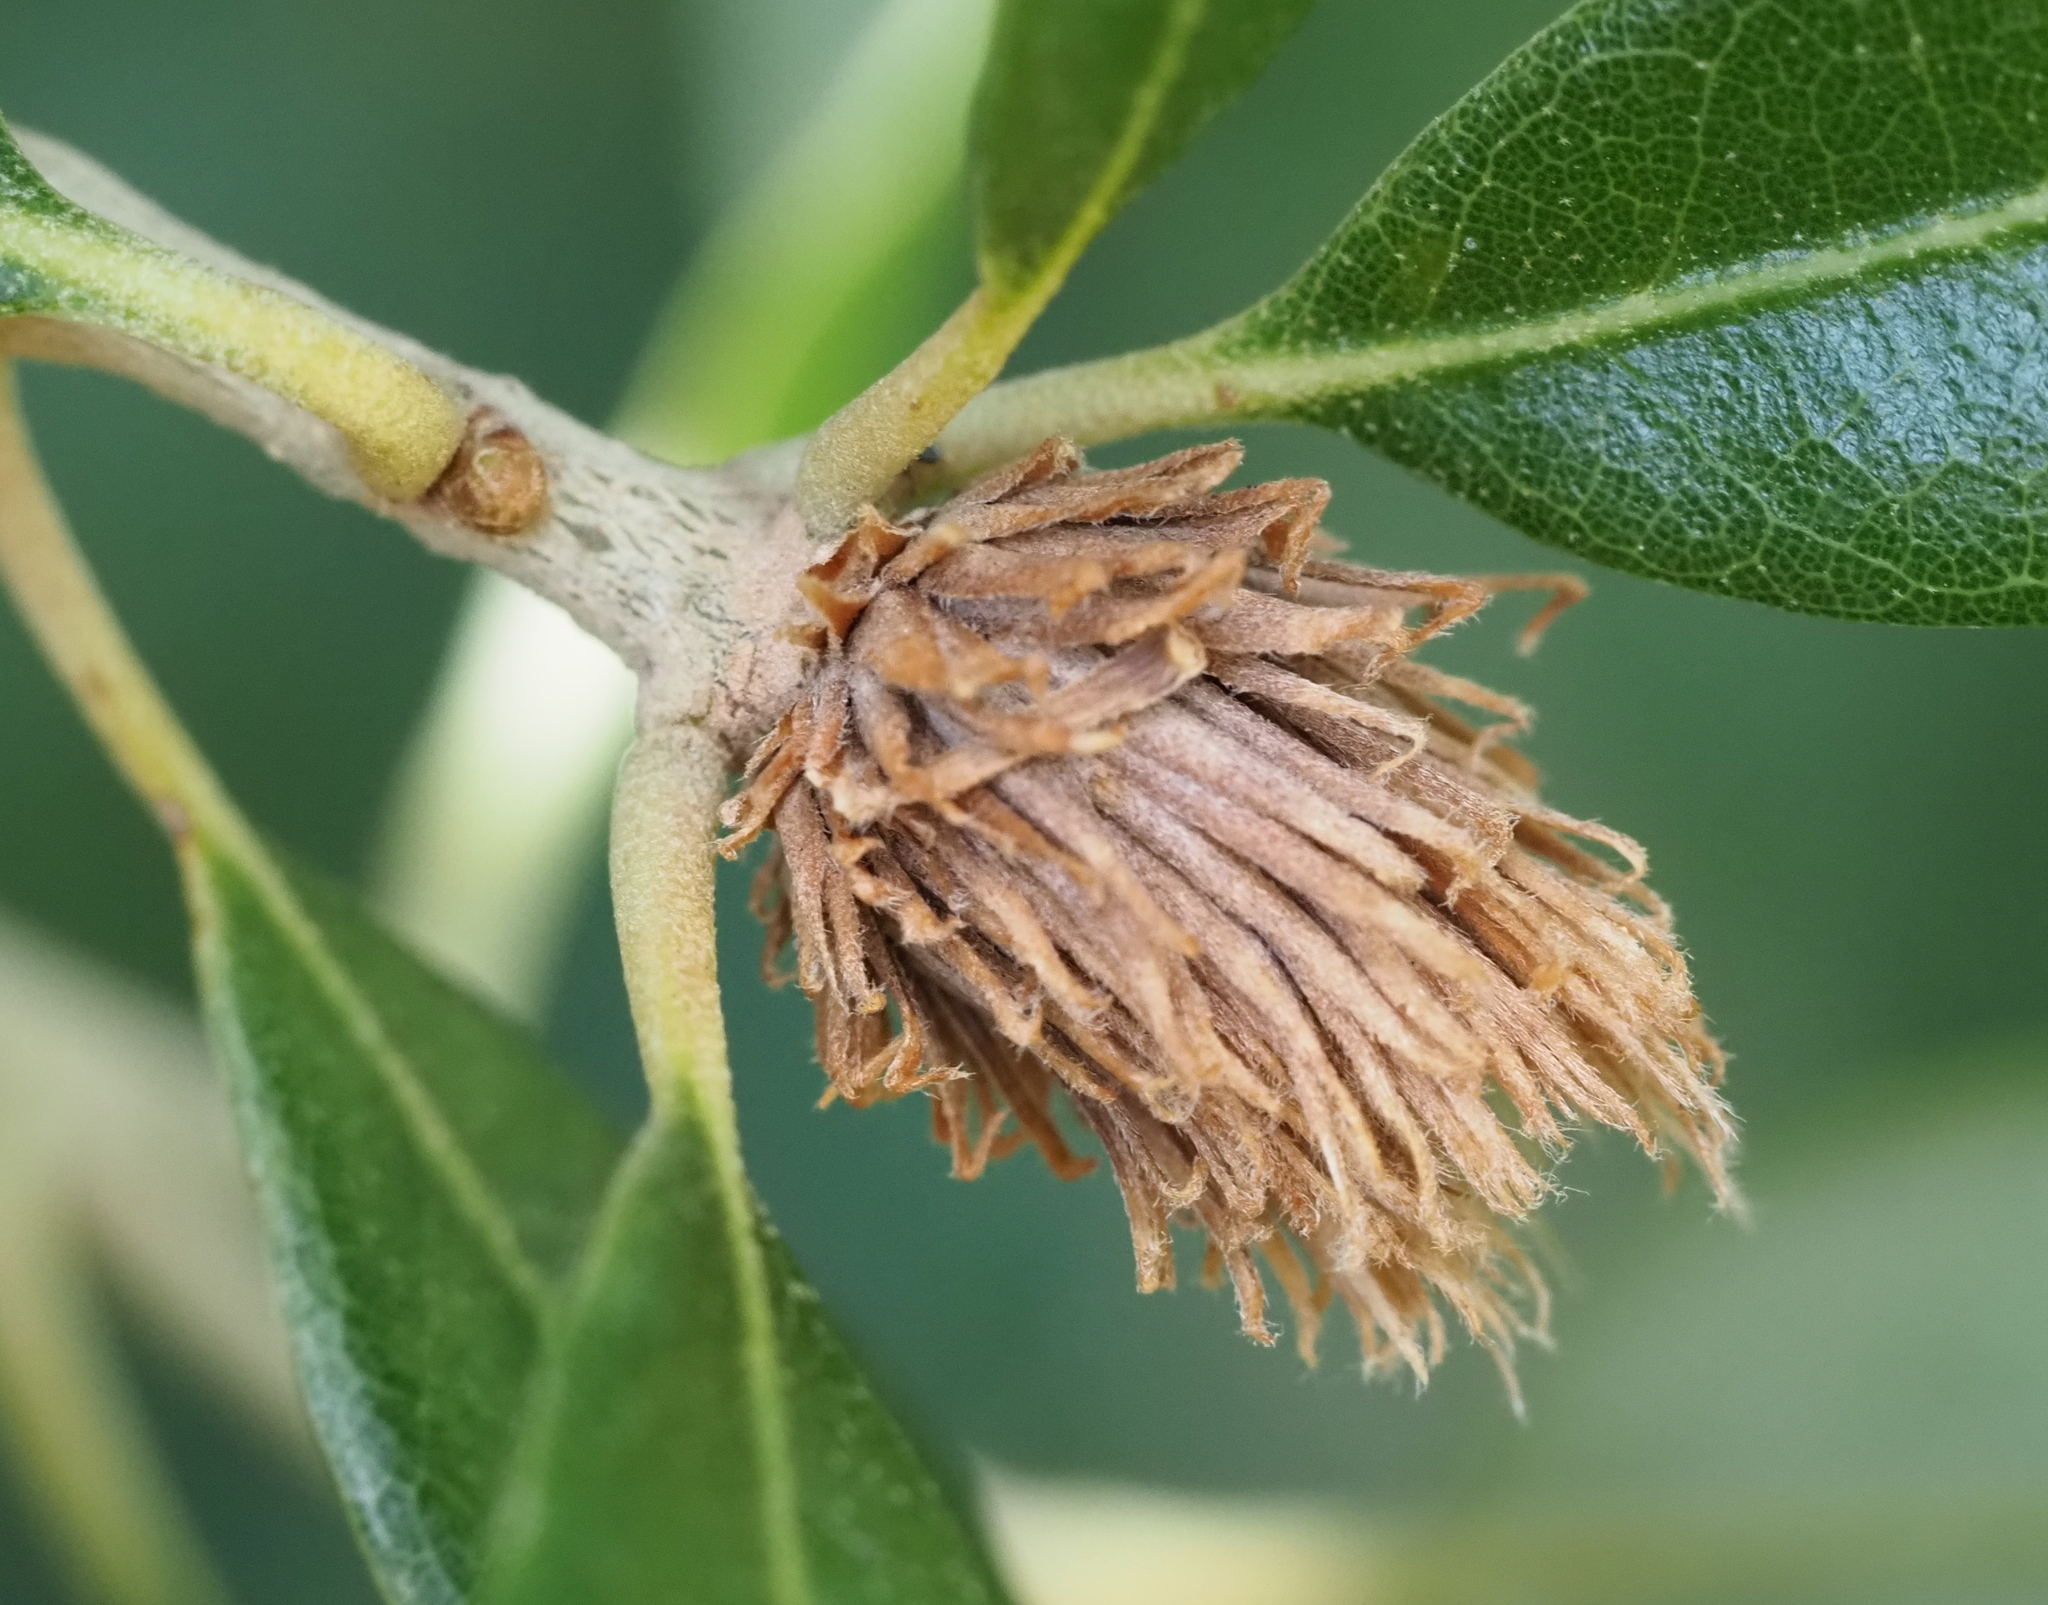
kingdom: Animalia
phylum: Arthropoda
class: Insecta
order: Hymenoptera
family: Cynipidae
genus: Andricus
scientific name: Andricus quercusfoliatus
